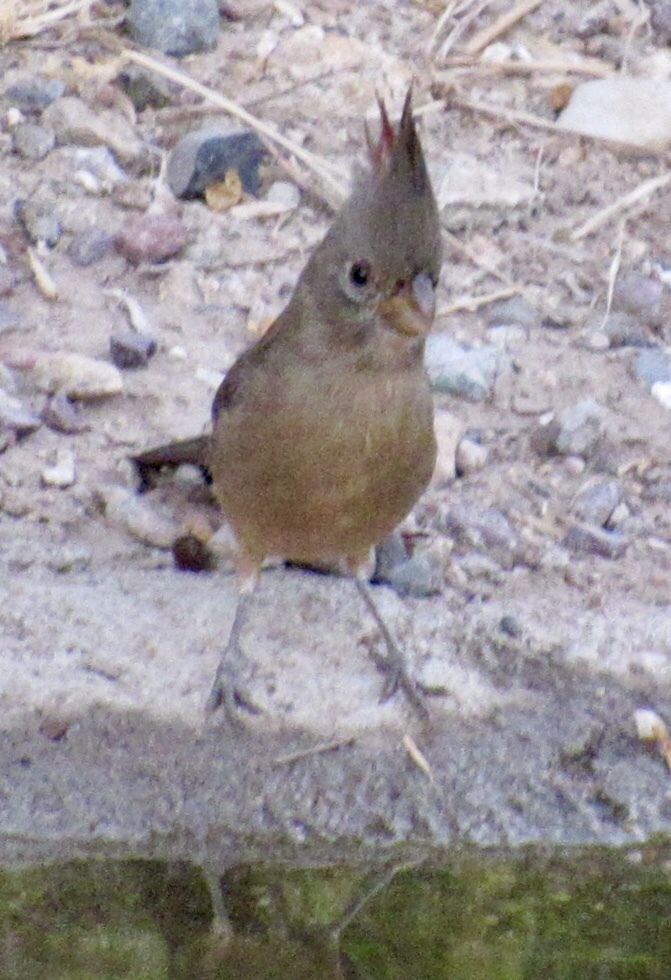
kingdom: Animalia
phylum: Chordata
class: Aves
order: Passeriformes
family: Cardinalidae
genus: Cardinalis
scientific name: Cardinalis sinuatus
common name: Pyrrhuloxia
